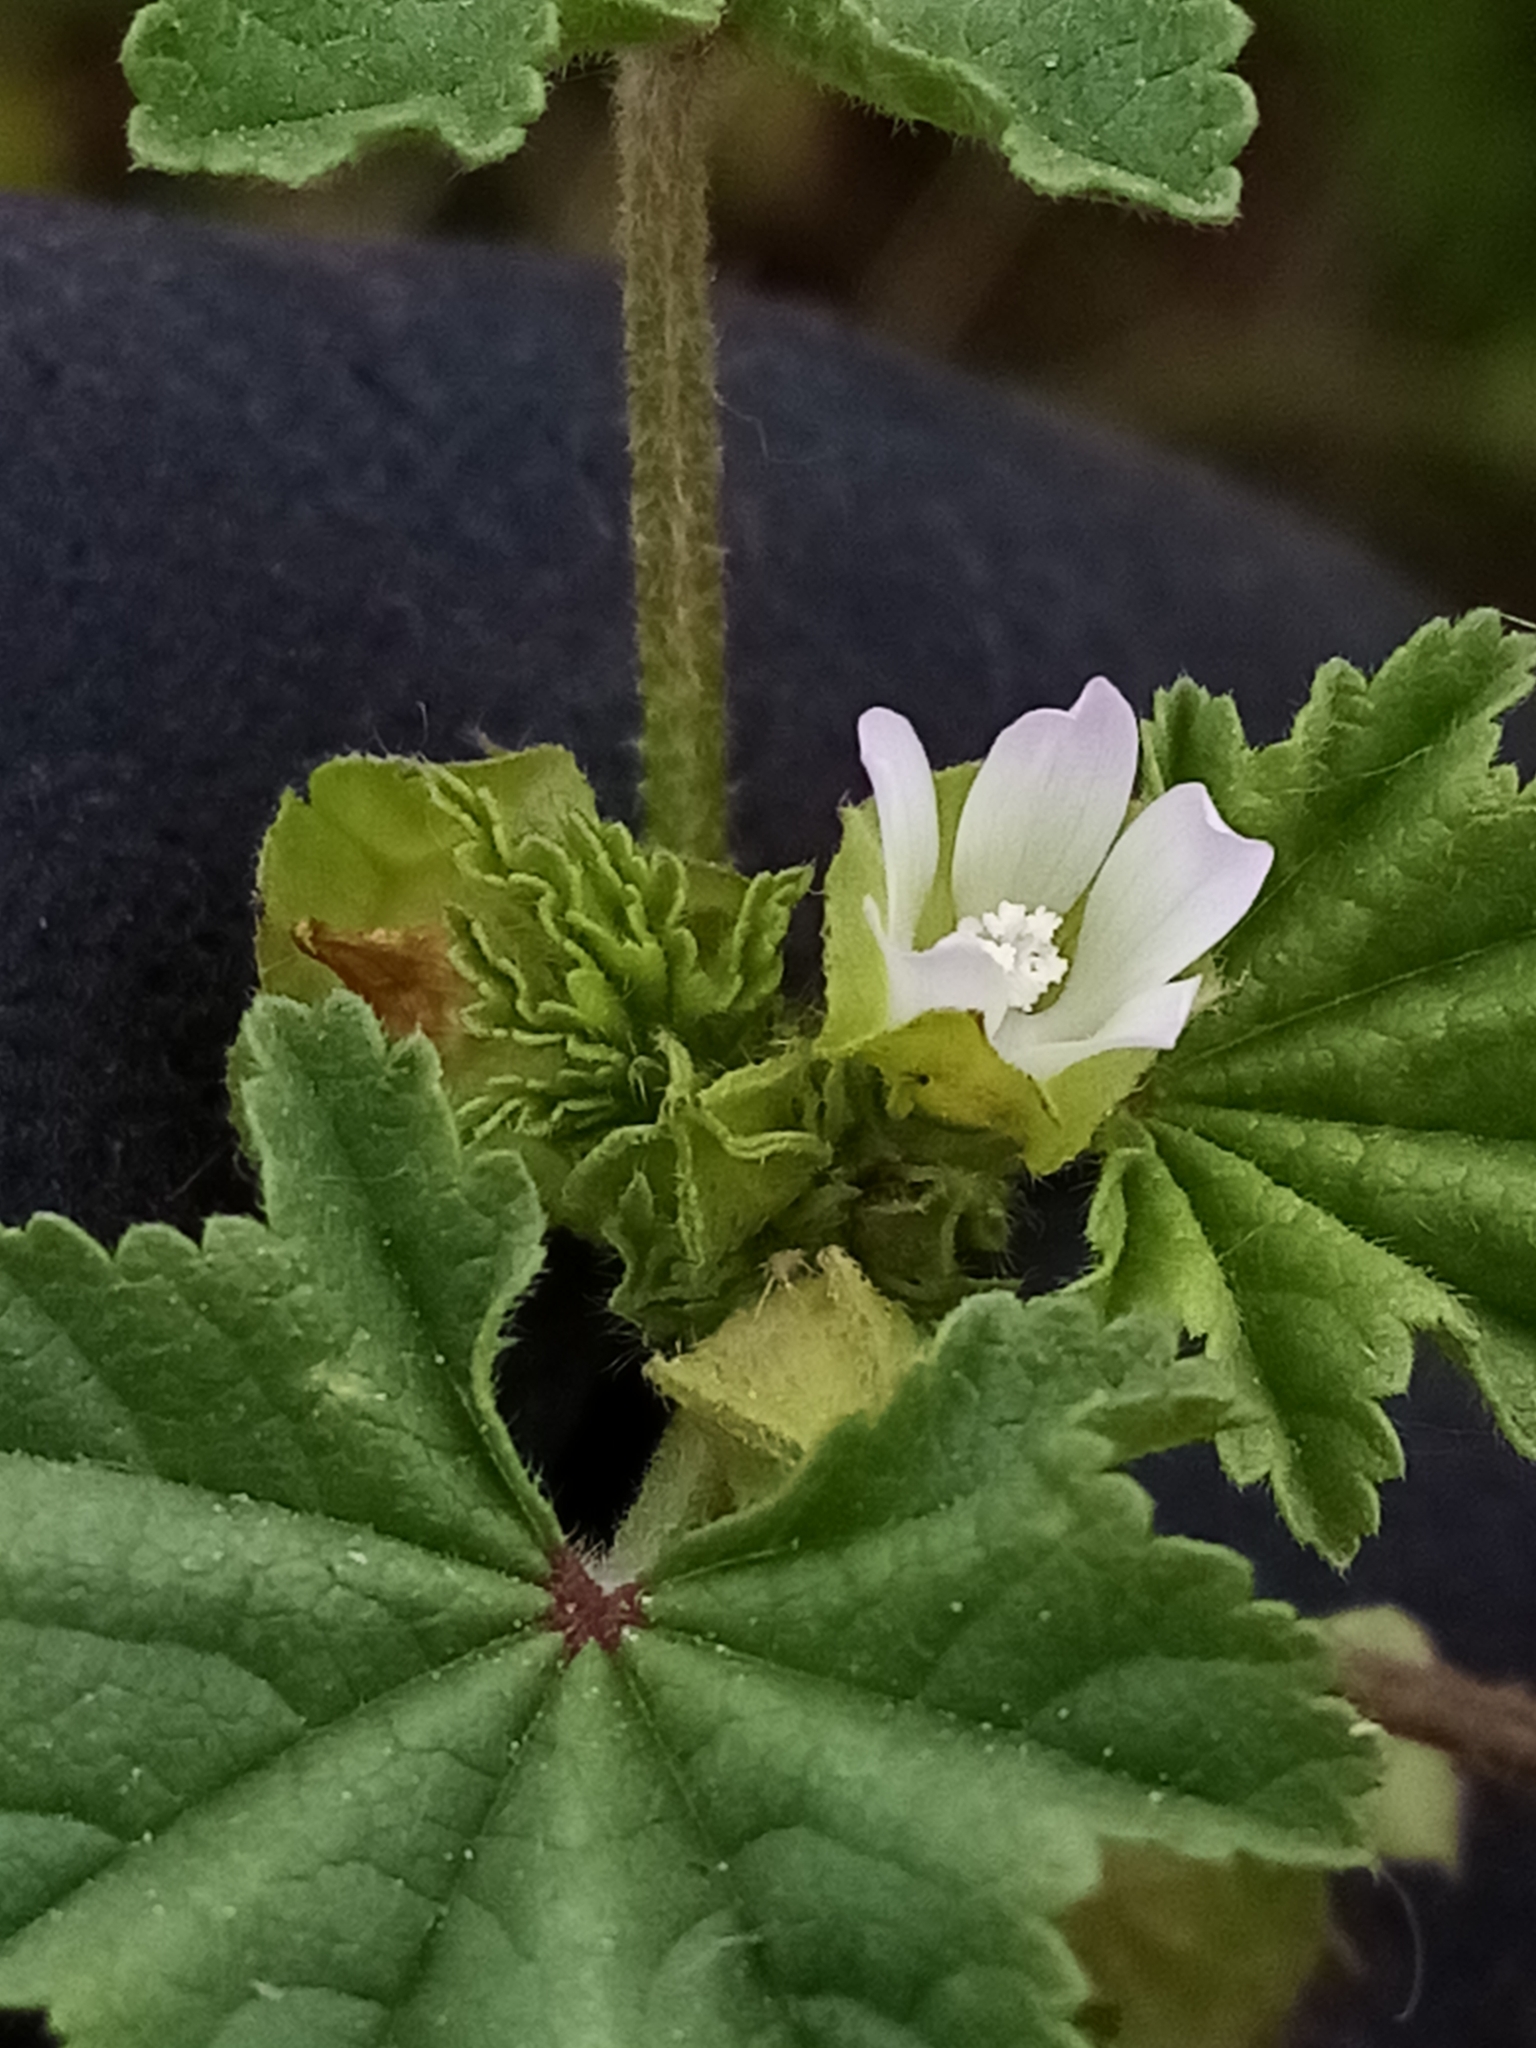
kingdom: Plantae
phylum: Tracheophyta
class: Magnoliopsida
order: Malvales
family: Malvaceae
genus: Malva
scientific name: Malva parviflora
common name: Least mallow
